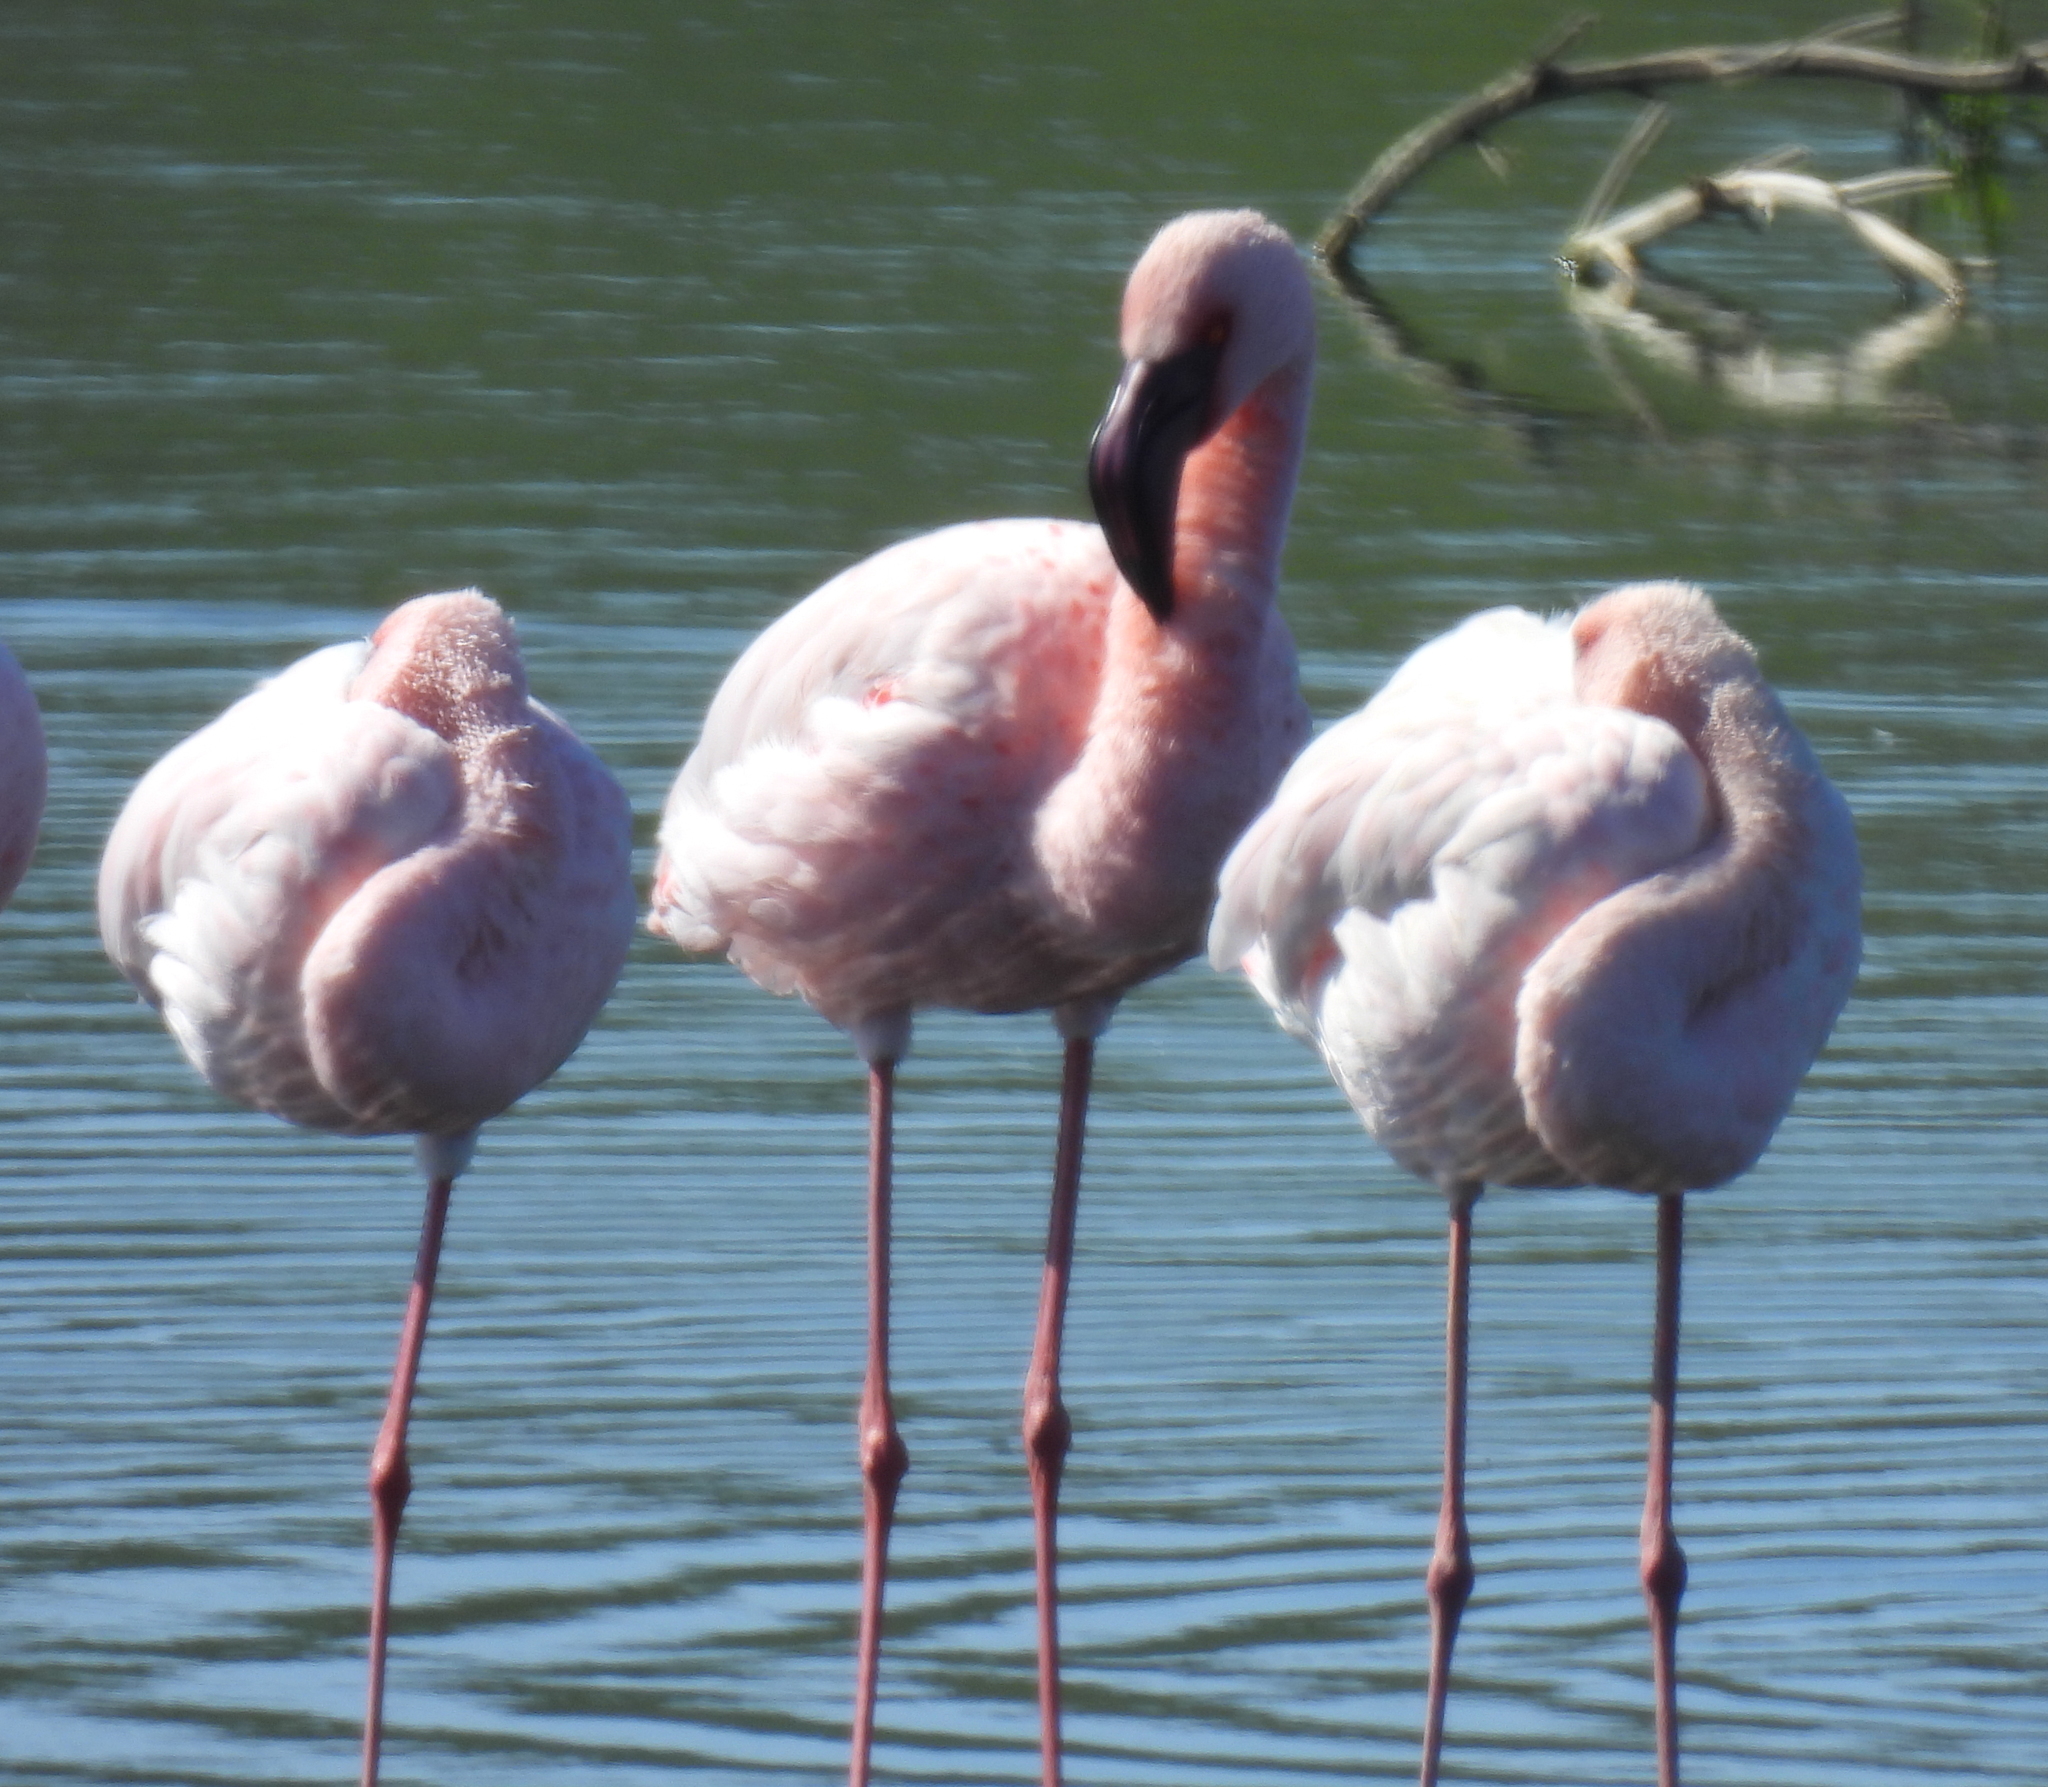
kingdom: Animalia
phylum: Chordata
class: Aves
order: Phoenicopteriformes
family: Phoenicopteridae
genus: Phoeniconaias
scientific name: Phoeniconaias minor
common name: Lesser flamingo
